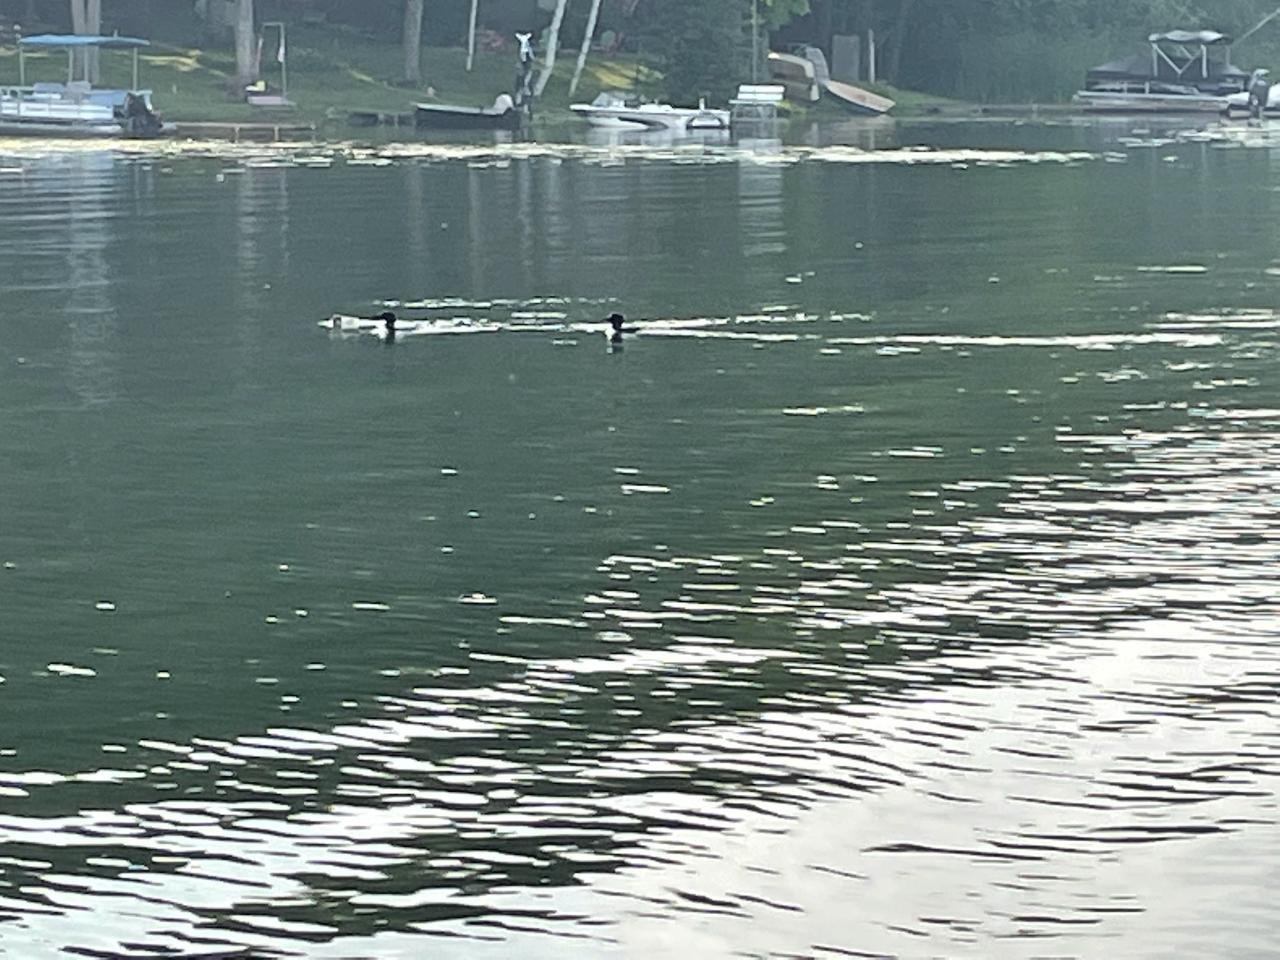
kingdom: Animalia
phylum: Chordata
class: Aves
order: Gaviiformes
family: Gaviidae
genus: Gavia
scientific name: Gavia immer
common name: Common loon
